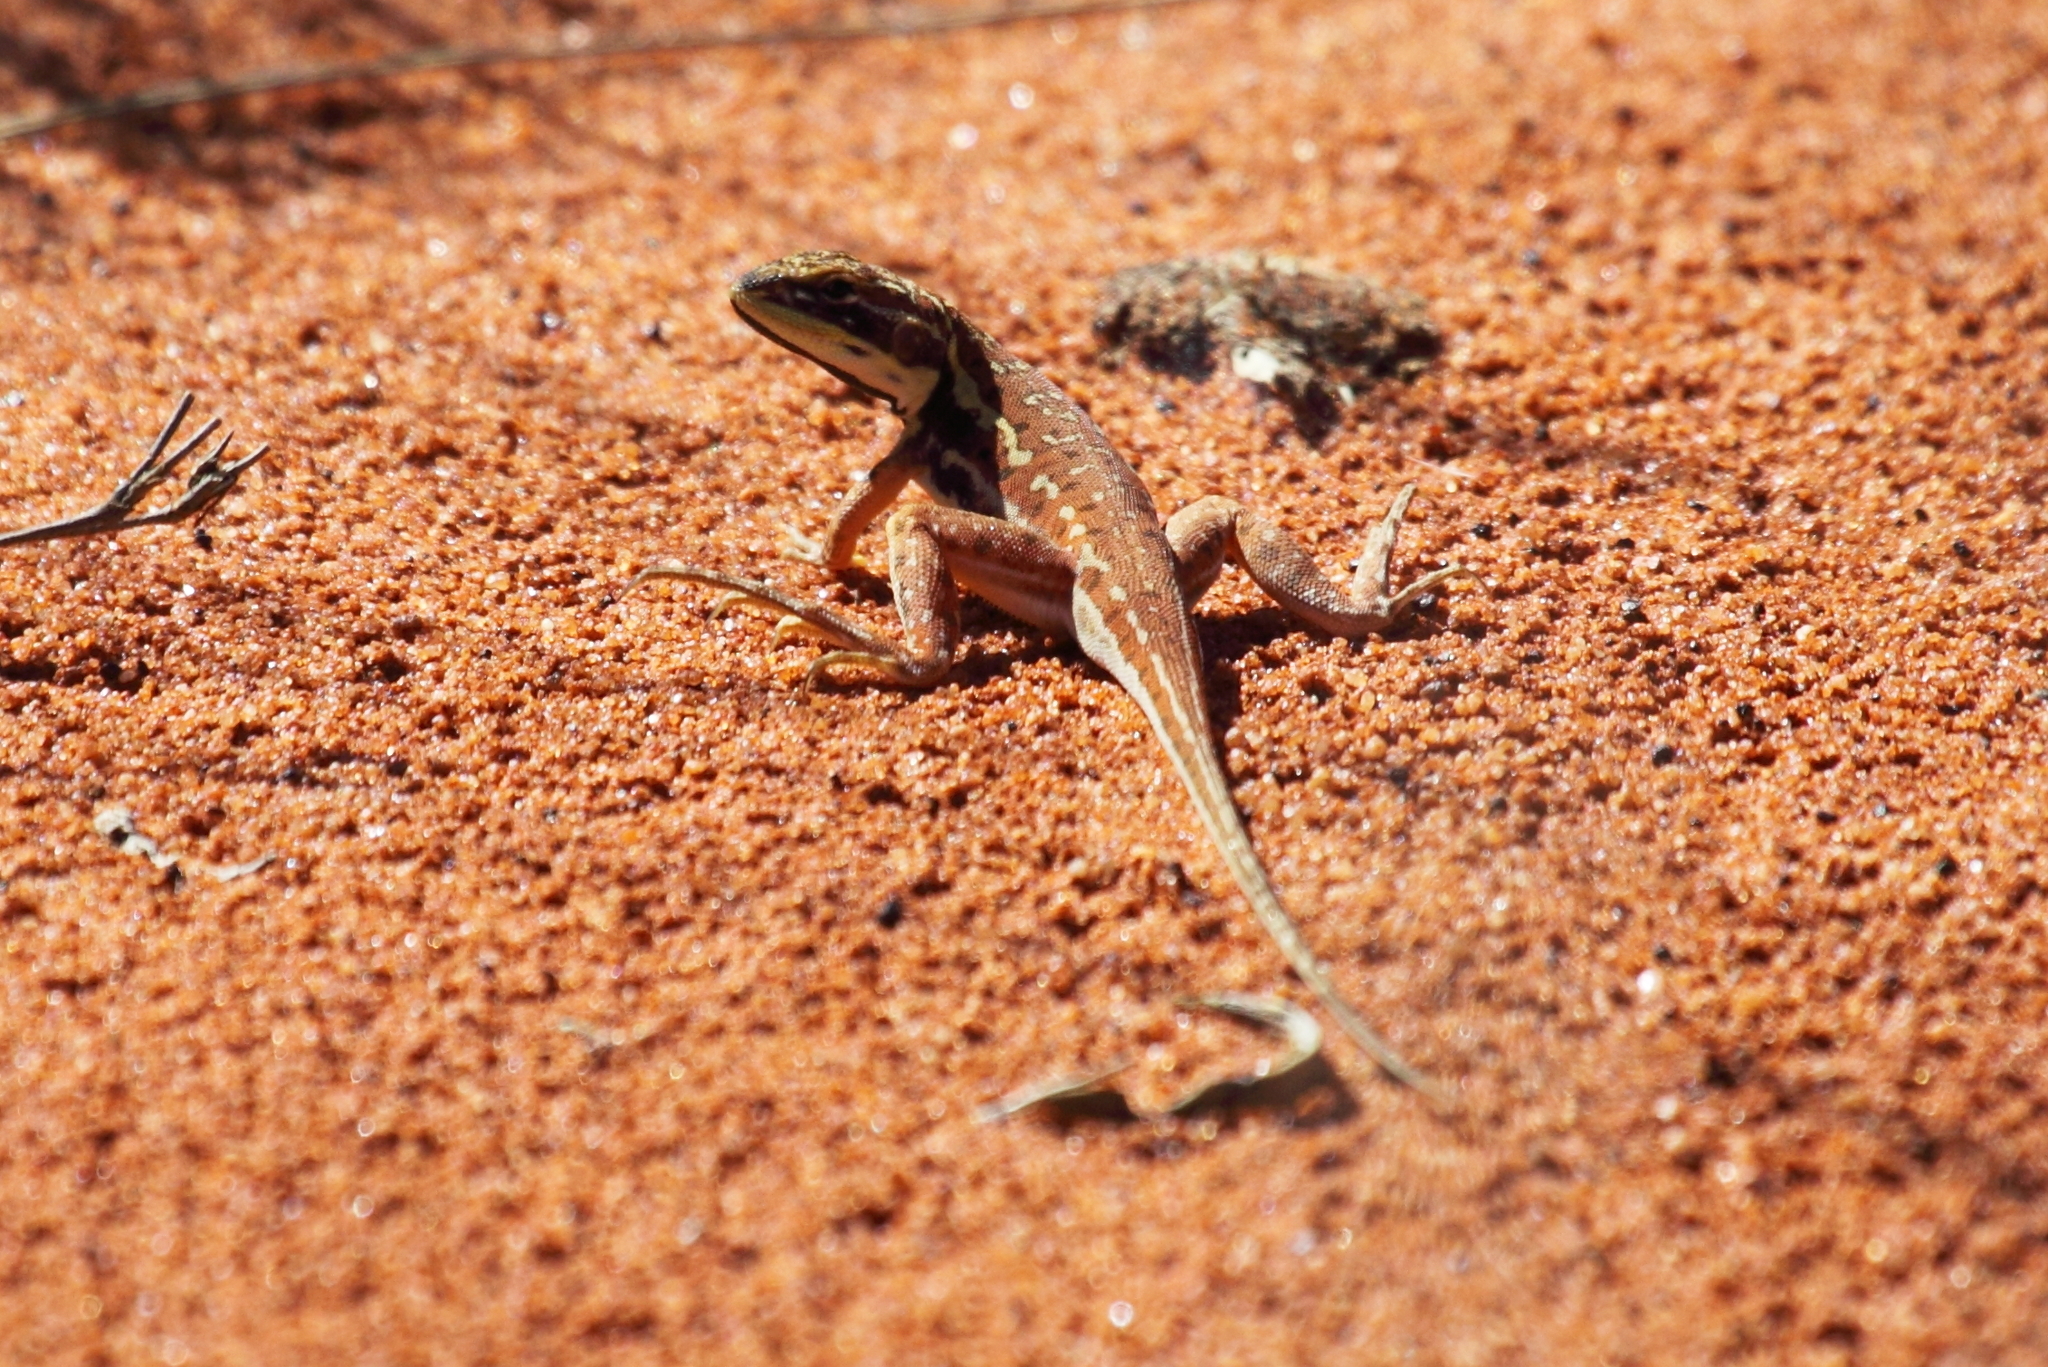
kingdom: Animalia
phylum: Chordata
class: Squamata
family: Agamidae
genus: Ctenophorus
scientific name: Ctenophorus isolepis
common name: Military dragon
